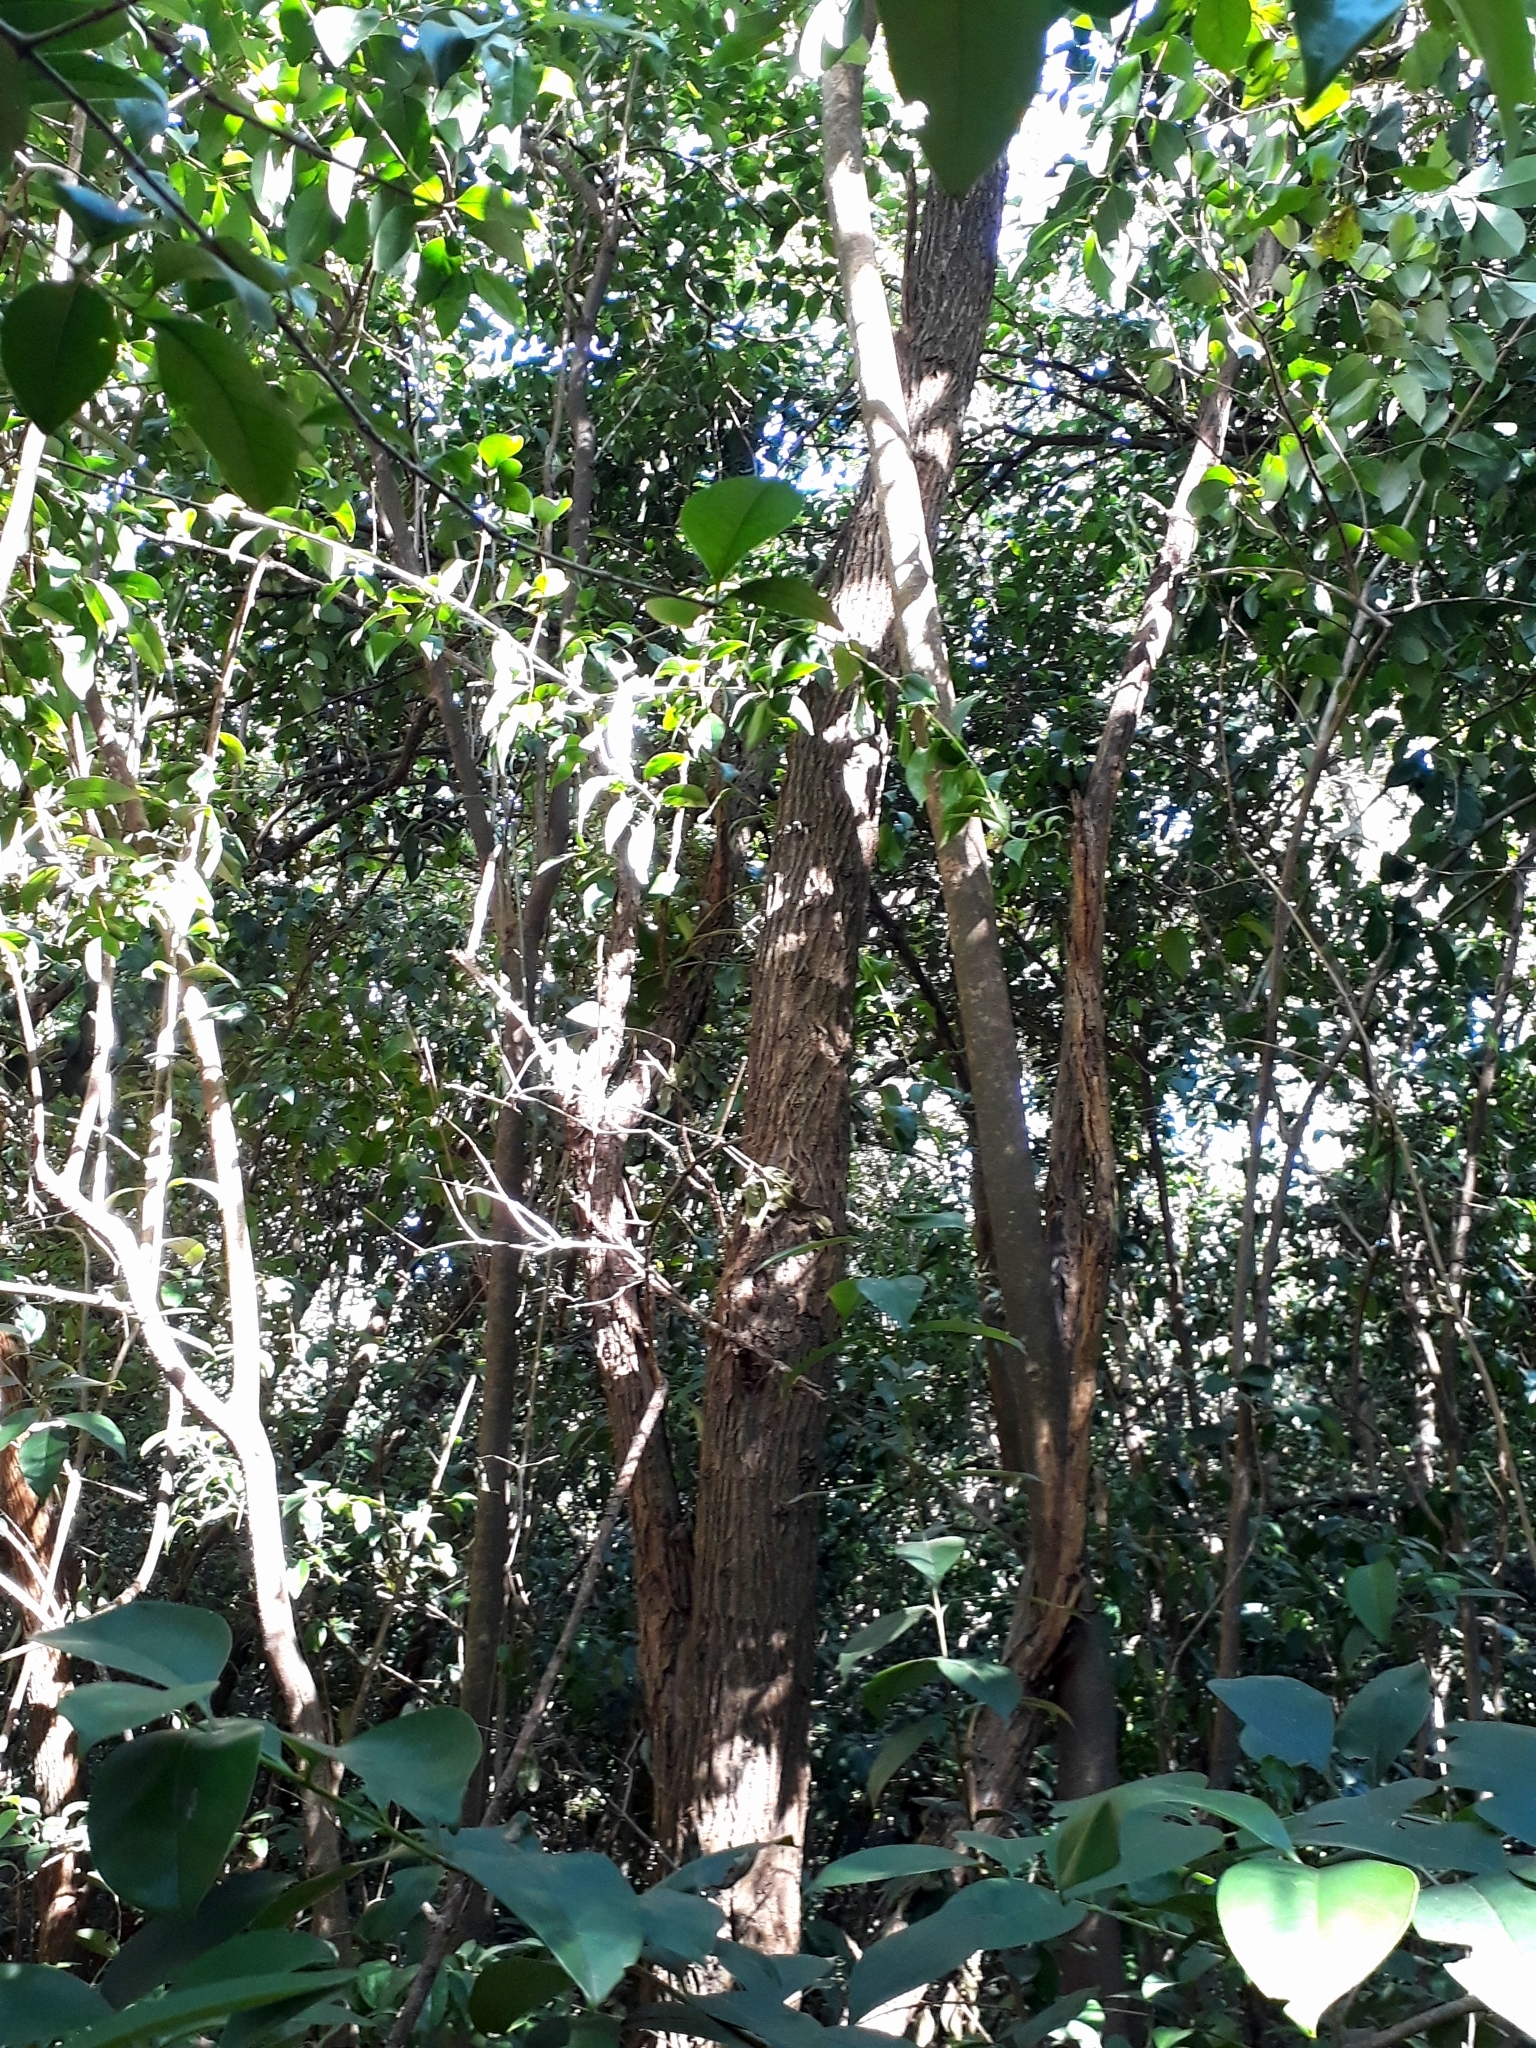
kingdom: Plantae
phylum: Tracheophyta
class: Magnoliopsida
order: Rosales
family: Moraceae
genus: Maclura
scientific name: Maclura pomifera
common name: Osage-orange
